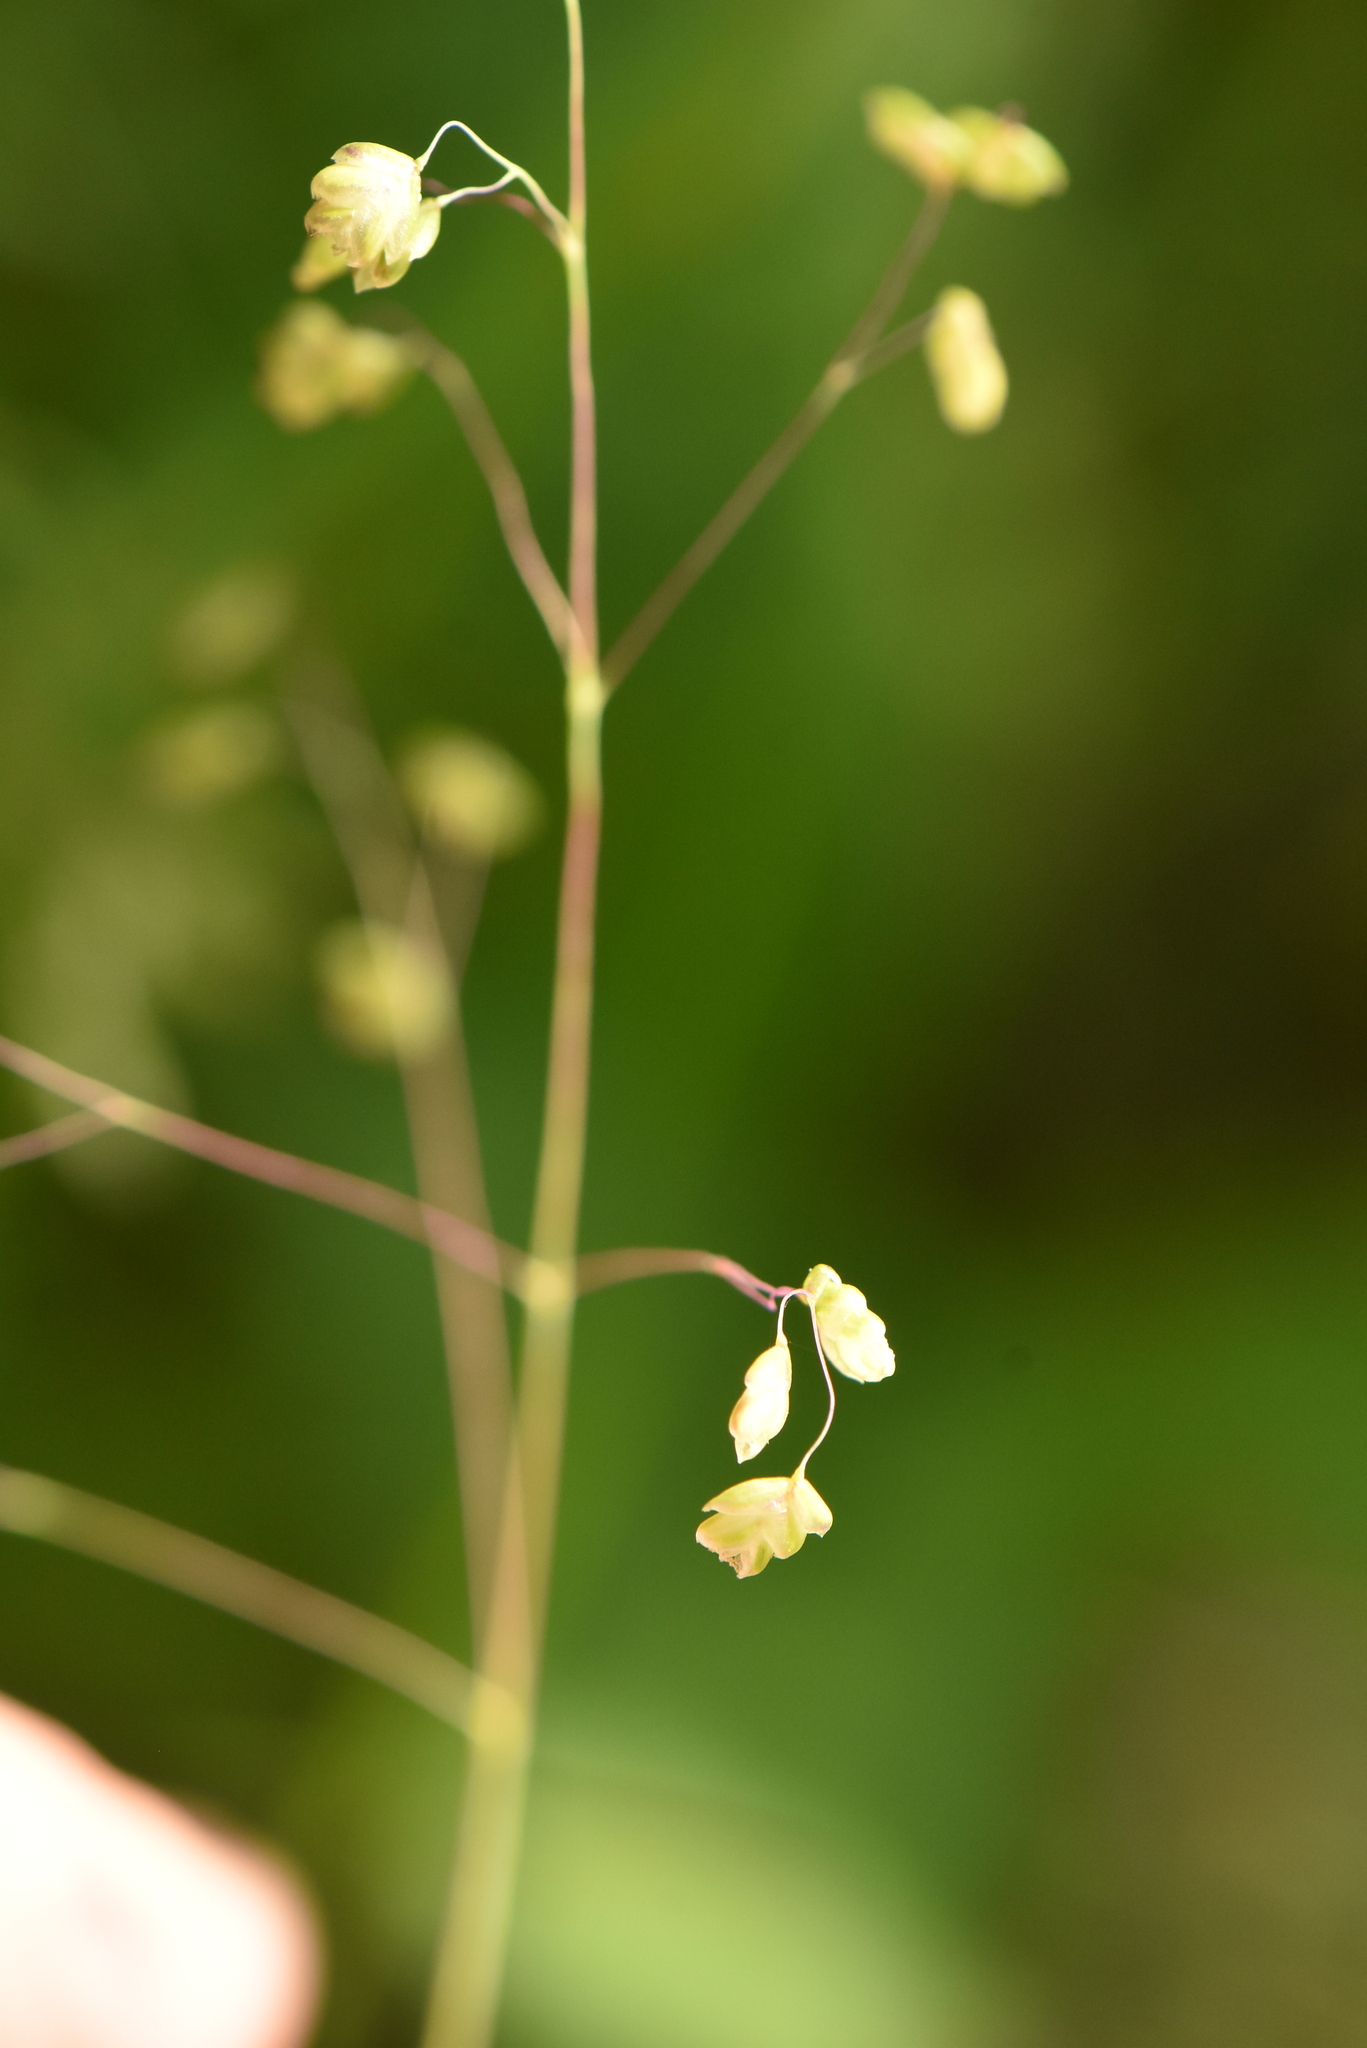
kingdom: Plantae
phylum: Tracheophyta
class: Liliopsida
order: Poales
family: Poaceae
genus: Briza
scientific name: Briza media
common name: Quaking grass
